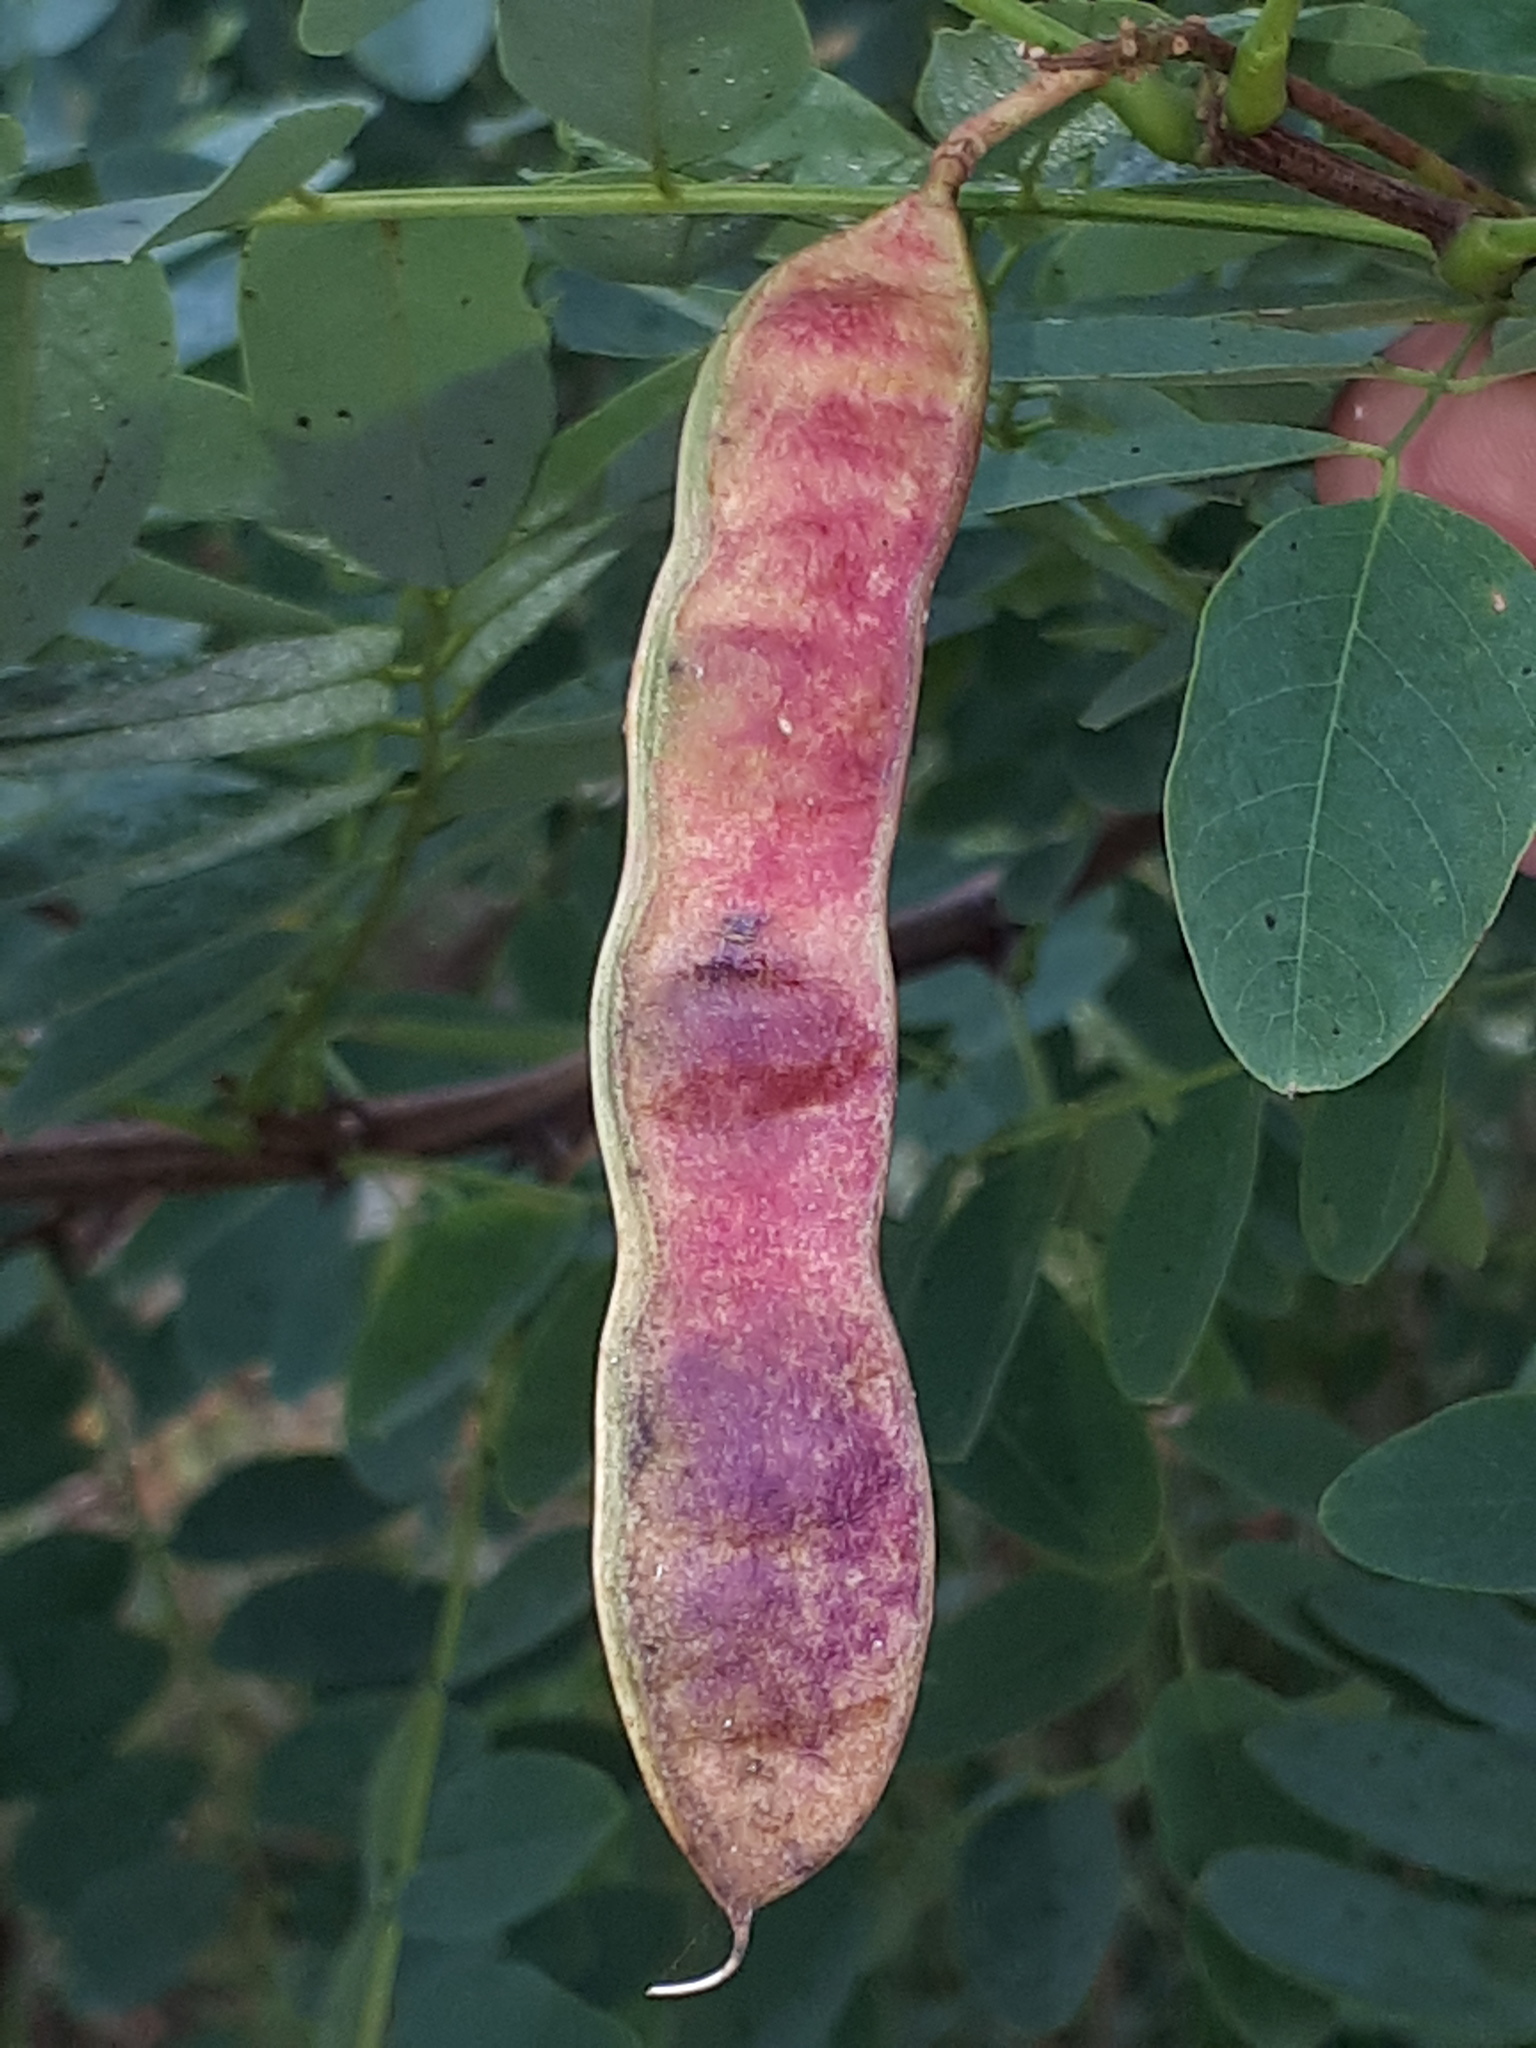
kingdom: Plantae
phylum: Tracheophyta
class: Magnoliopsida
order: Fabales
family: Fabaceae
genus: Robinia
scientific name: Robinia pseudoacacia
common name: Black locust
